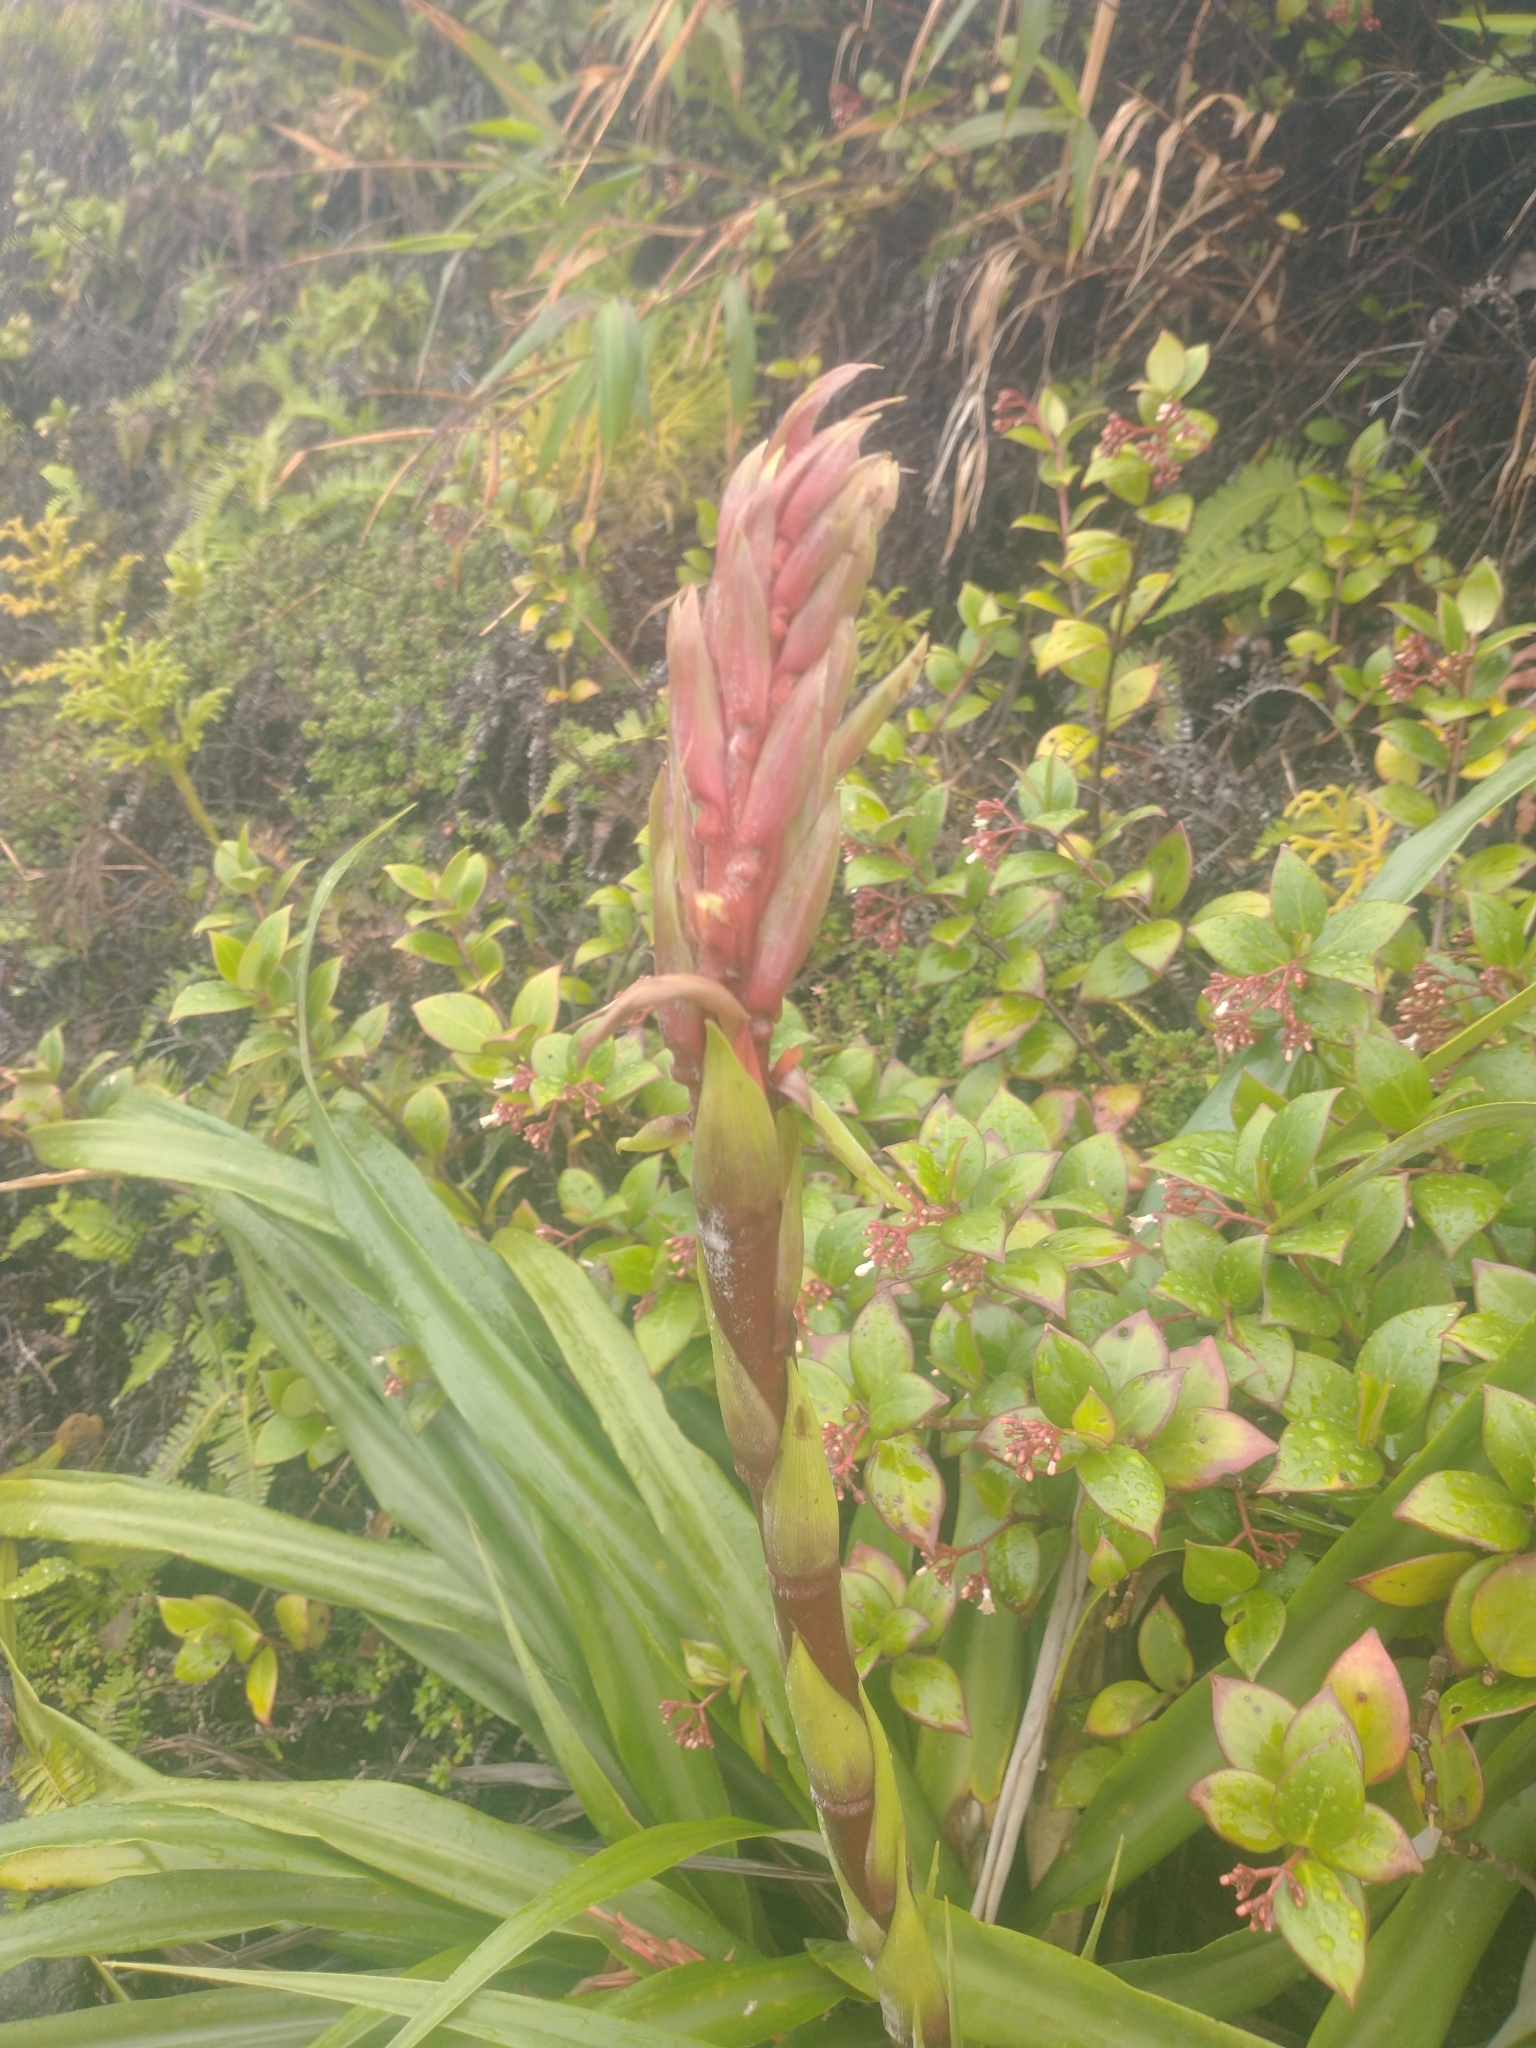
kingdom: Plantae
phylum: Tracheophyta
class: Liliopsida
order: Poales
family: Bromeliaceae
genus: Pitcairnia
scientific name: Pitcairnia bifrons
